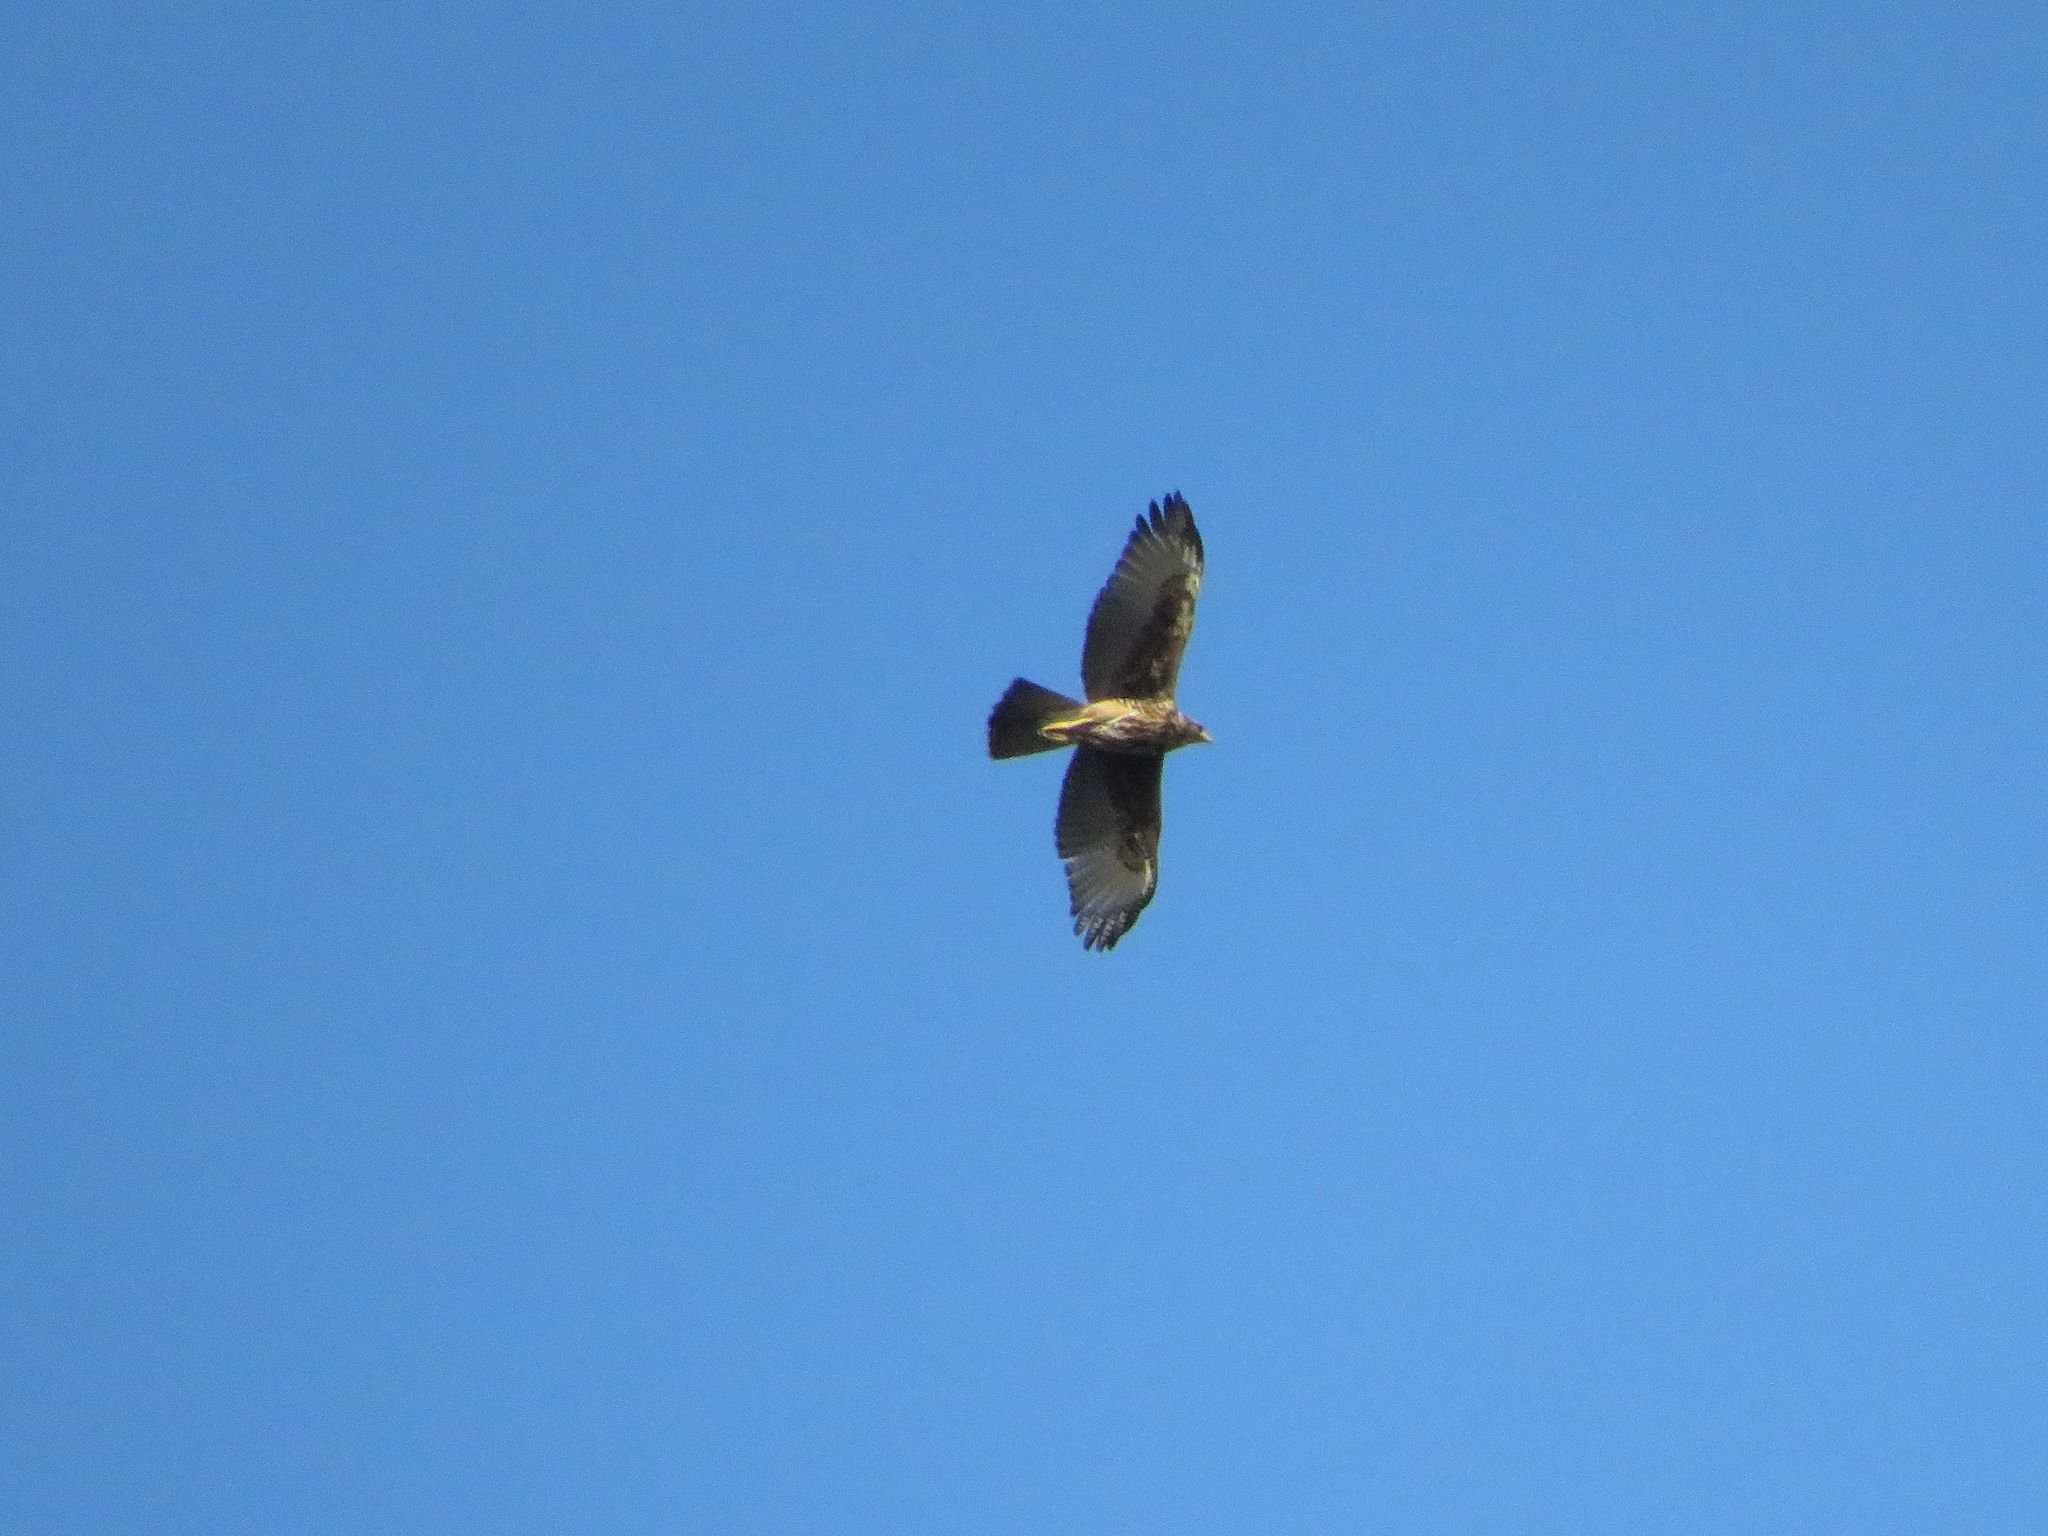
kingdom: Animalia
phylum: Chordata
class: Aves
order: Accipitriformes
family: Accipitridae
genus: Parabuteo
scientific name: Parabuteo unicinctus
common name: Harris's hawk
